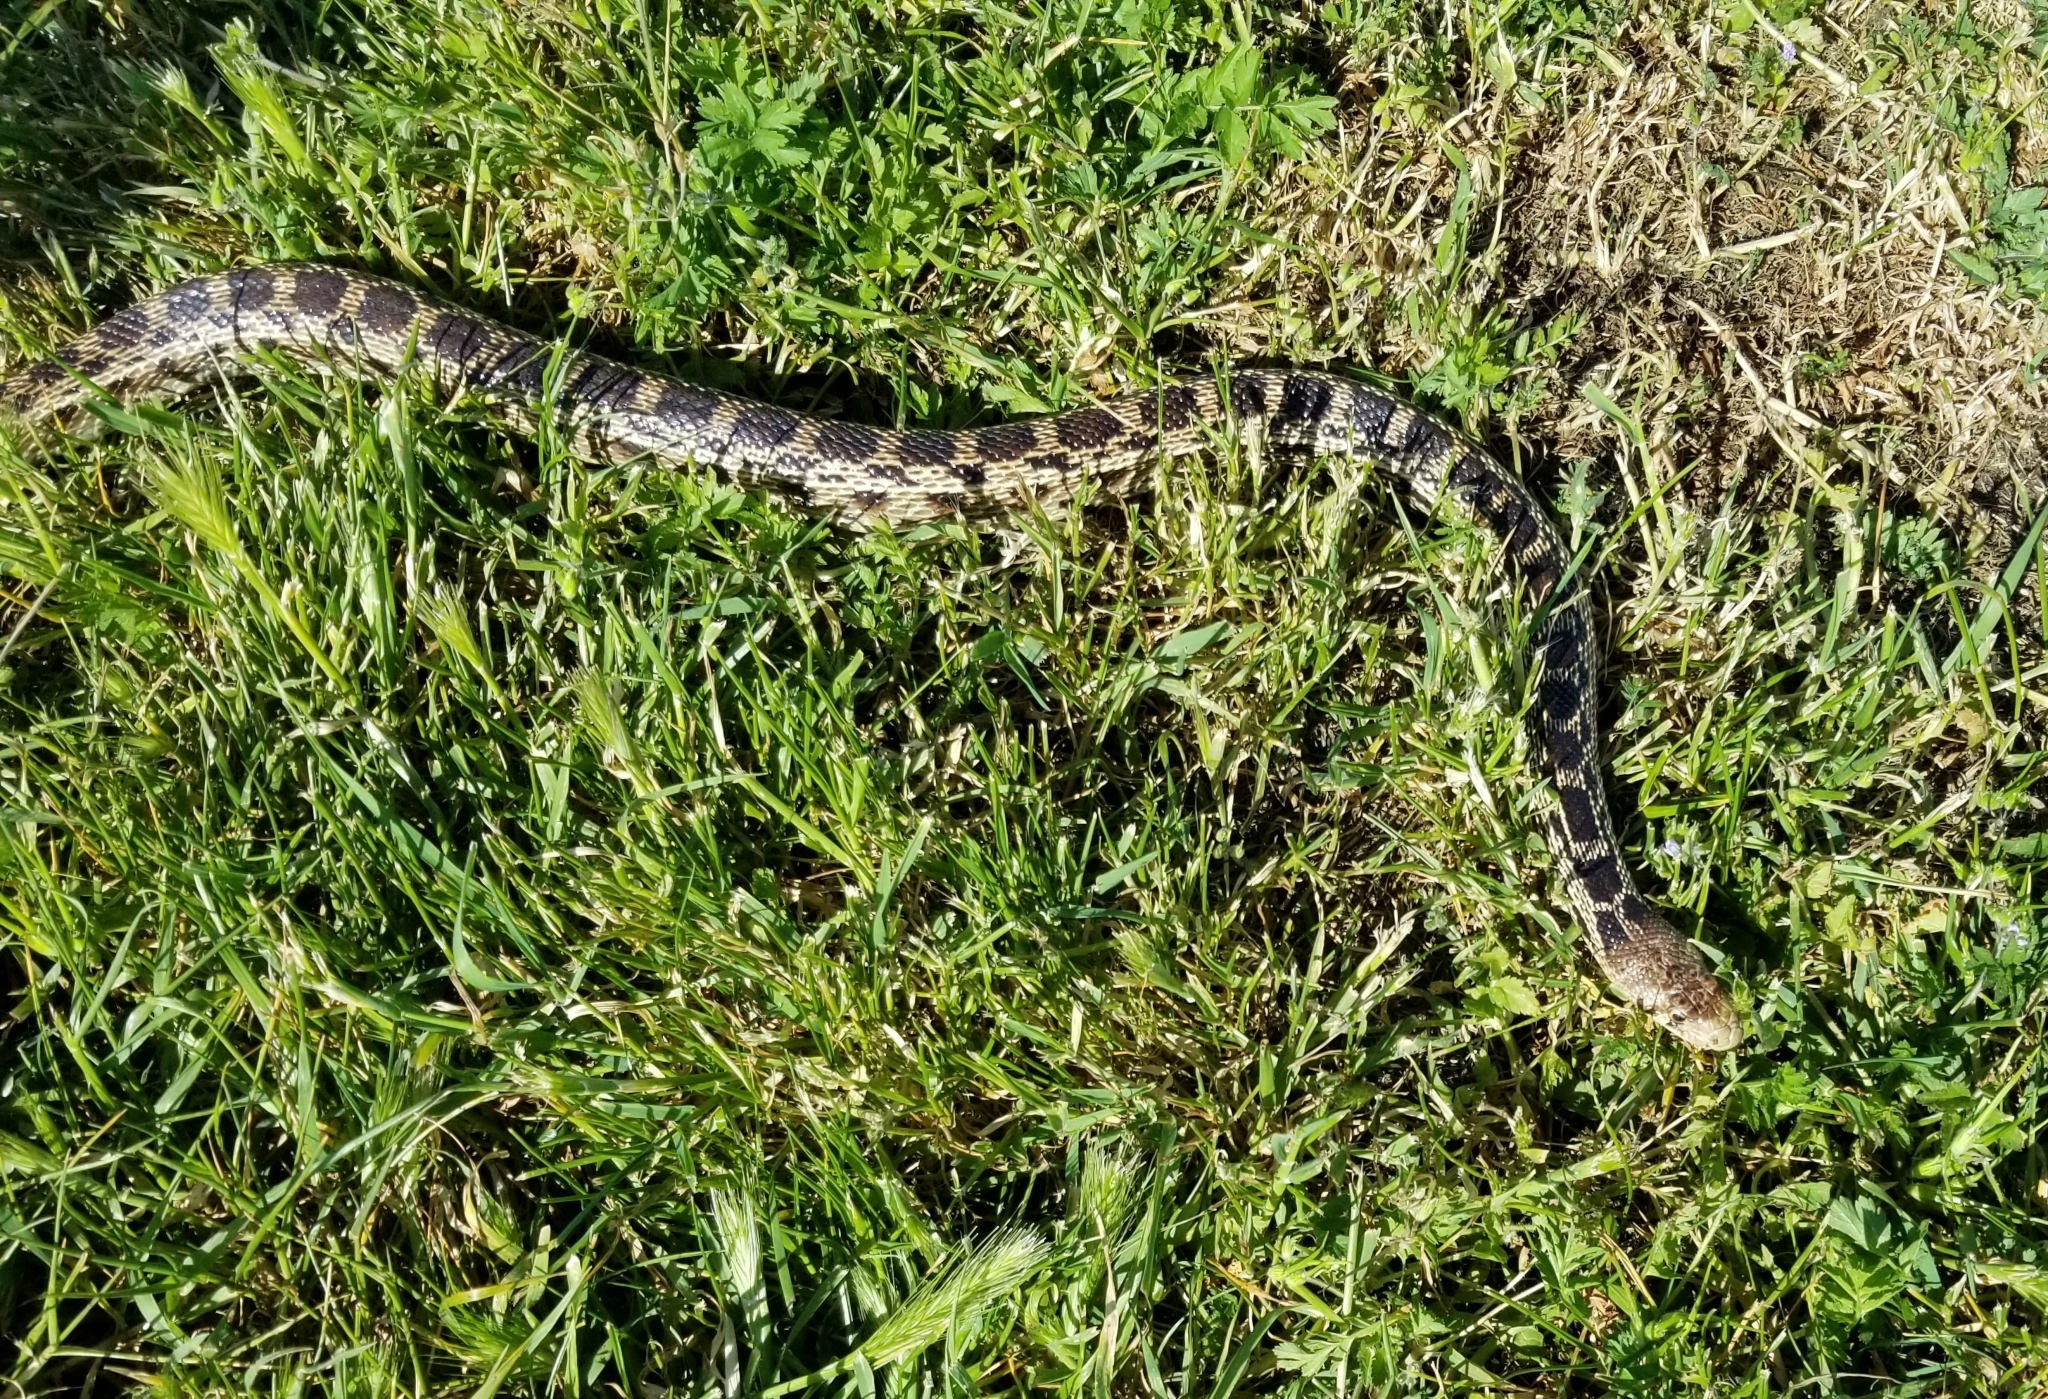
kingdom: Animalia
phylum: Chordata
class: Squamata
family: Colubridae
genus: Pituophis
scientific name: Pituophis catenifer
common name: Gopher snake
